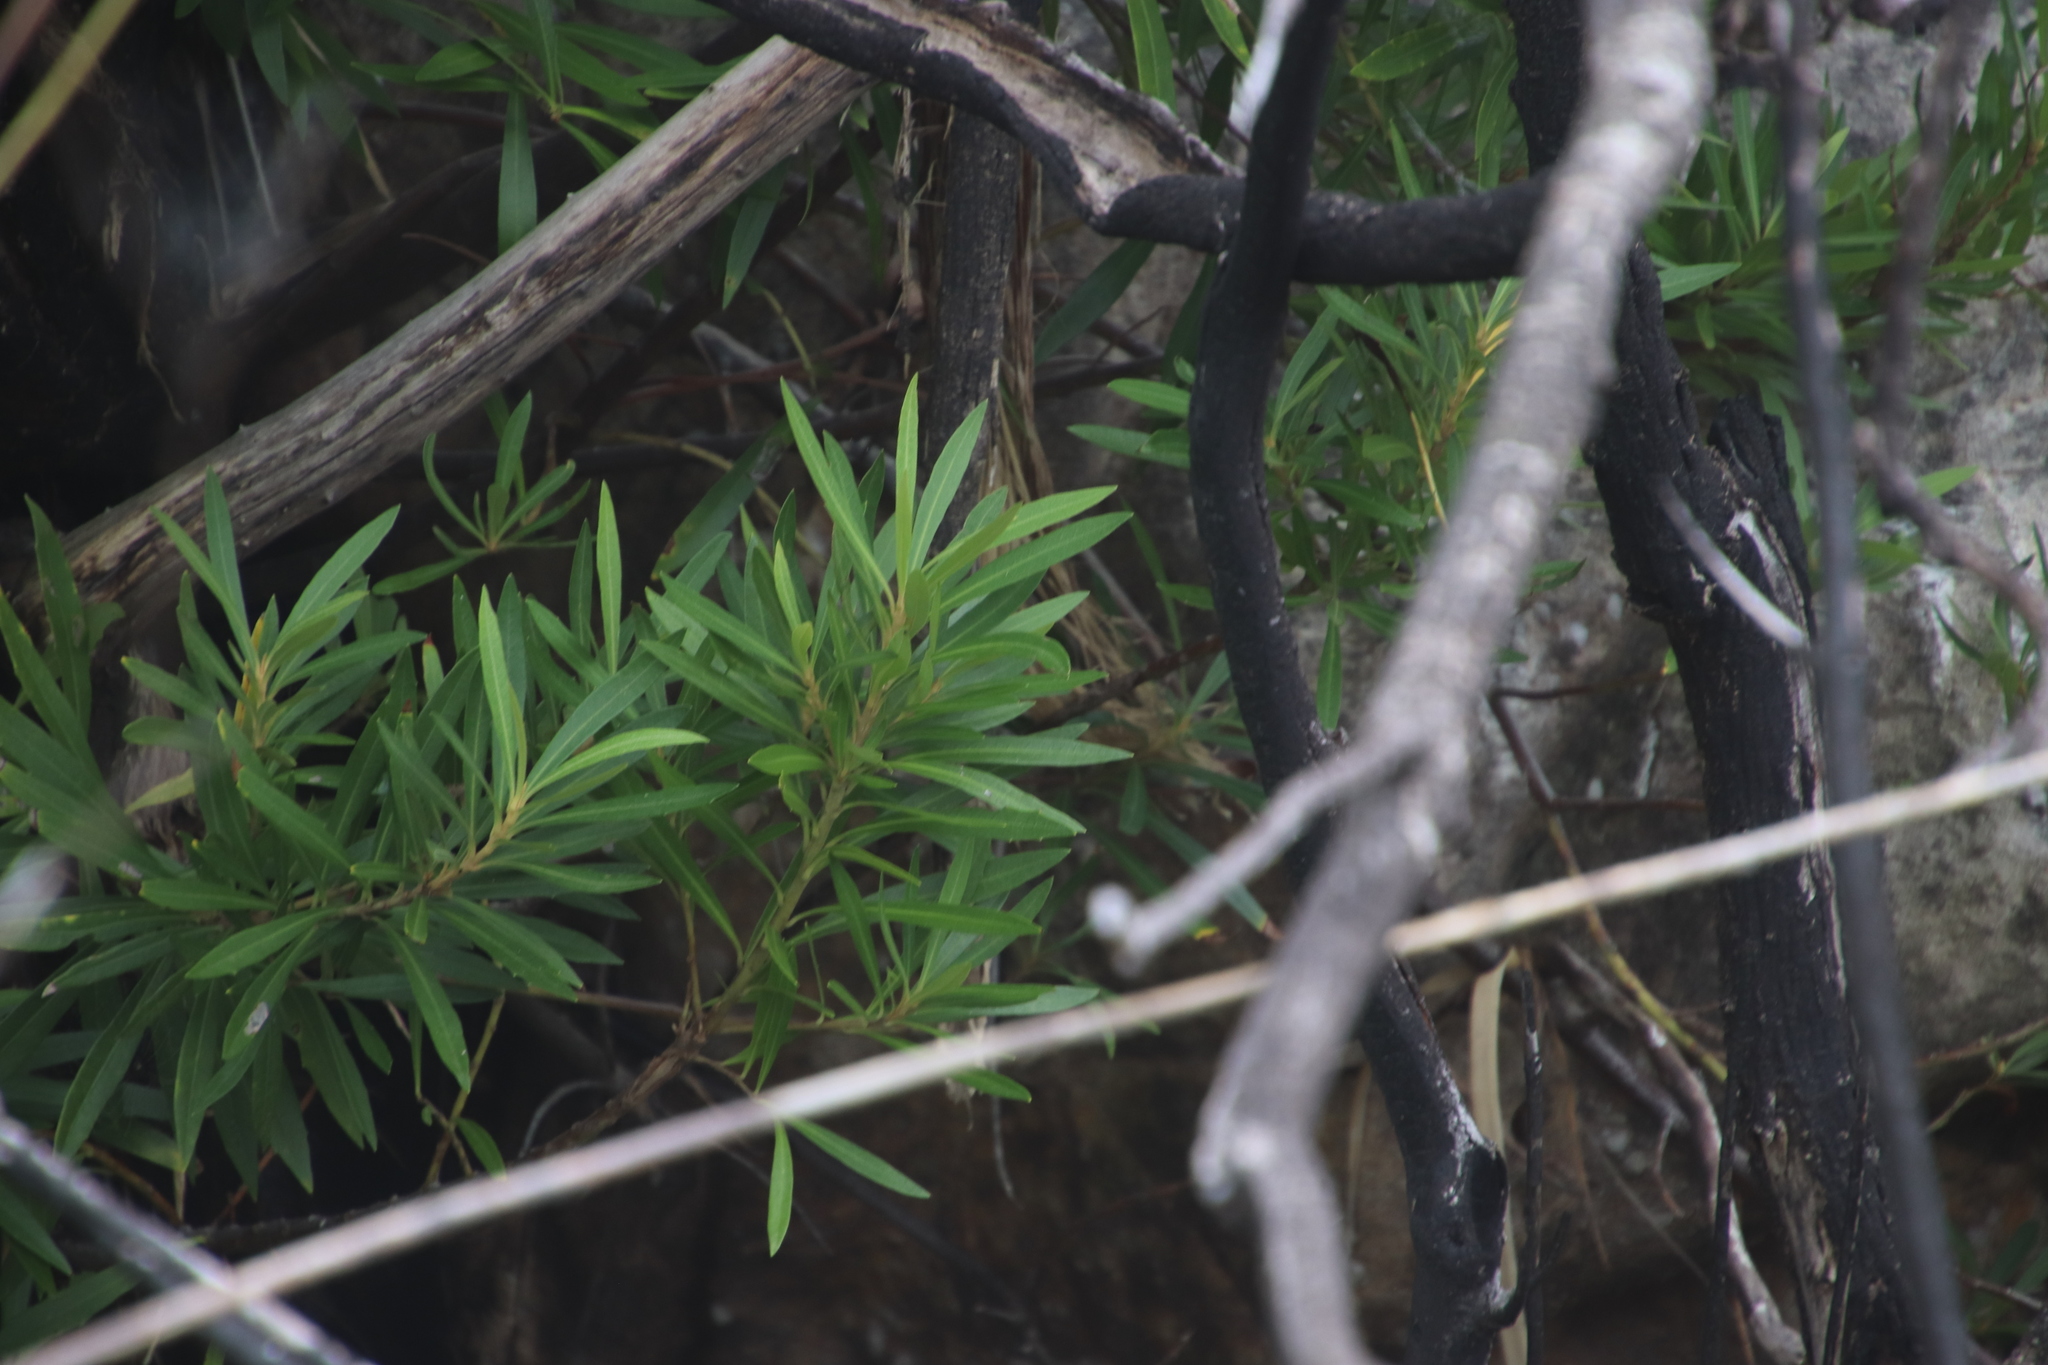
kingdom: Plantae
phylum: Tracheophyta
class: Magnoliopsida
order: Asterales
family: Asteraceae
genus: Brachylaena
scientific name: Brachylaena neriifolia
